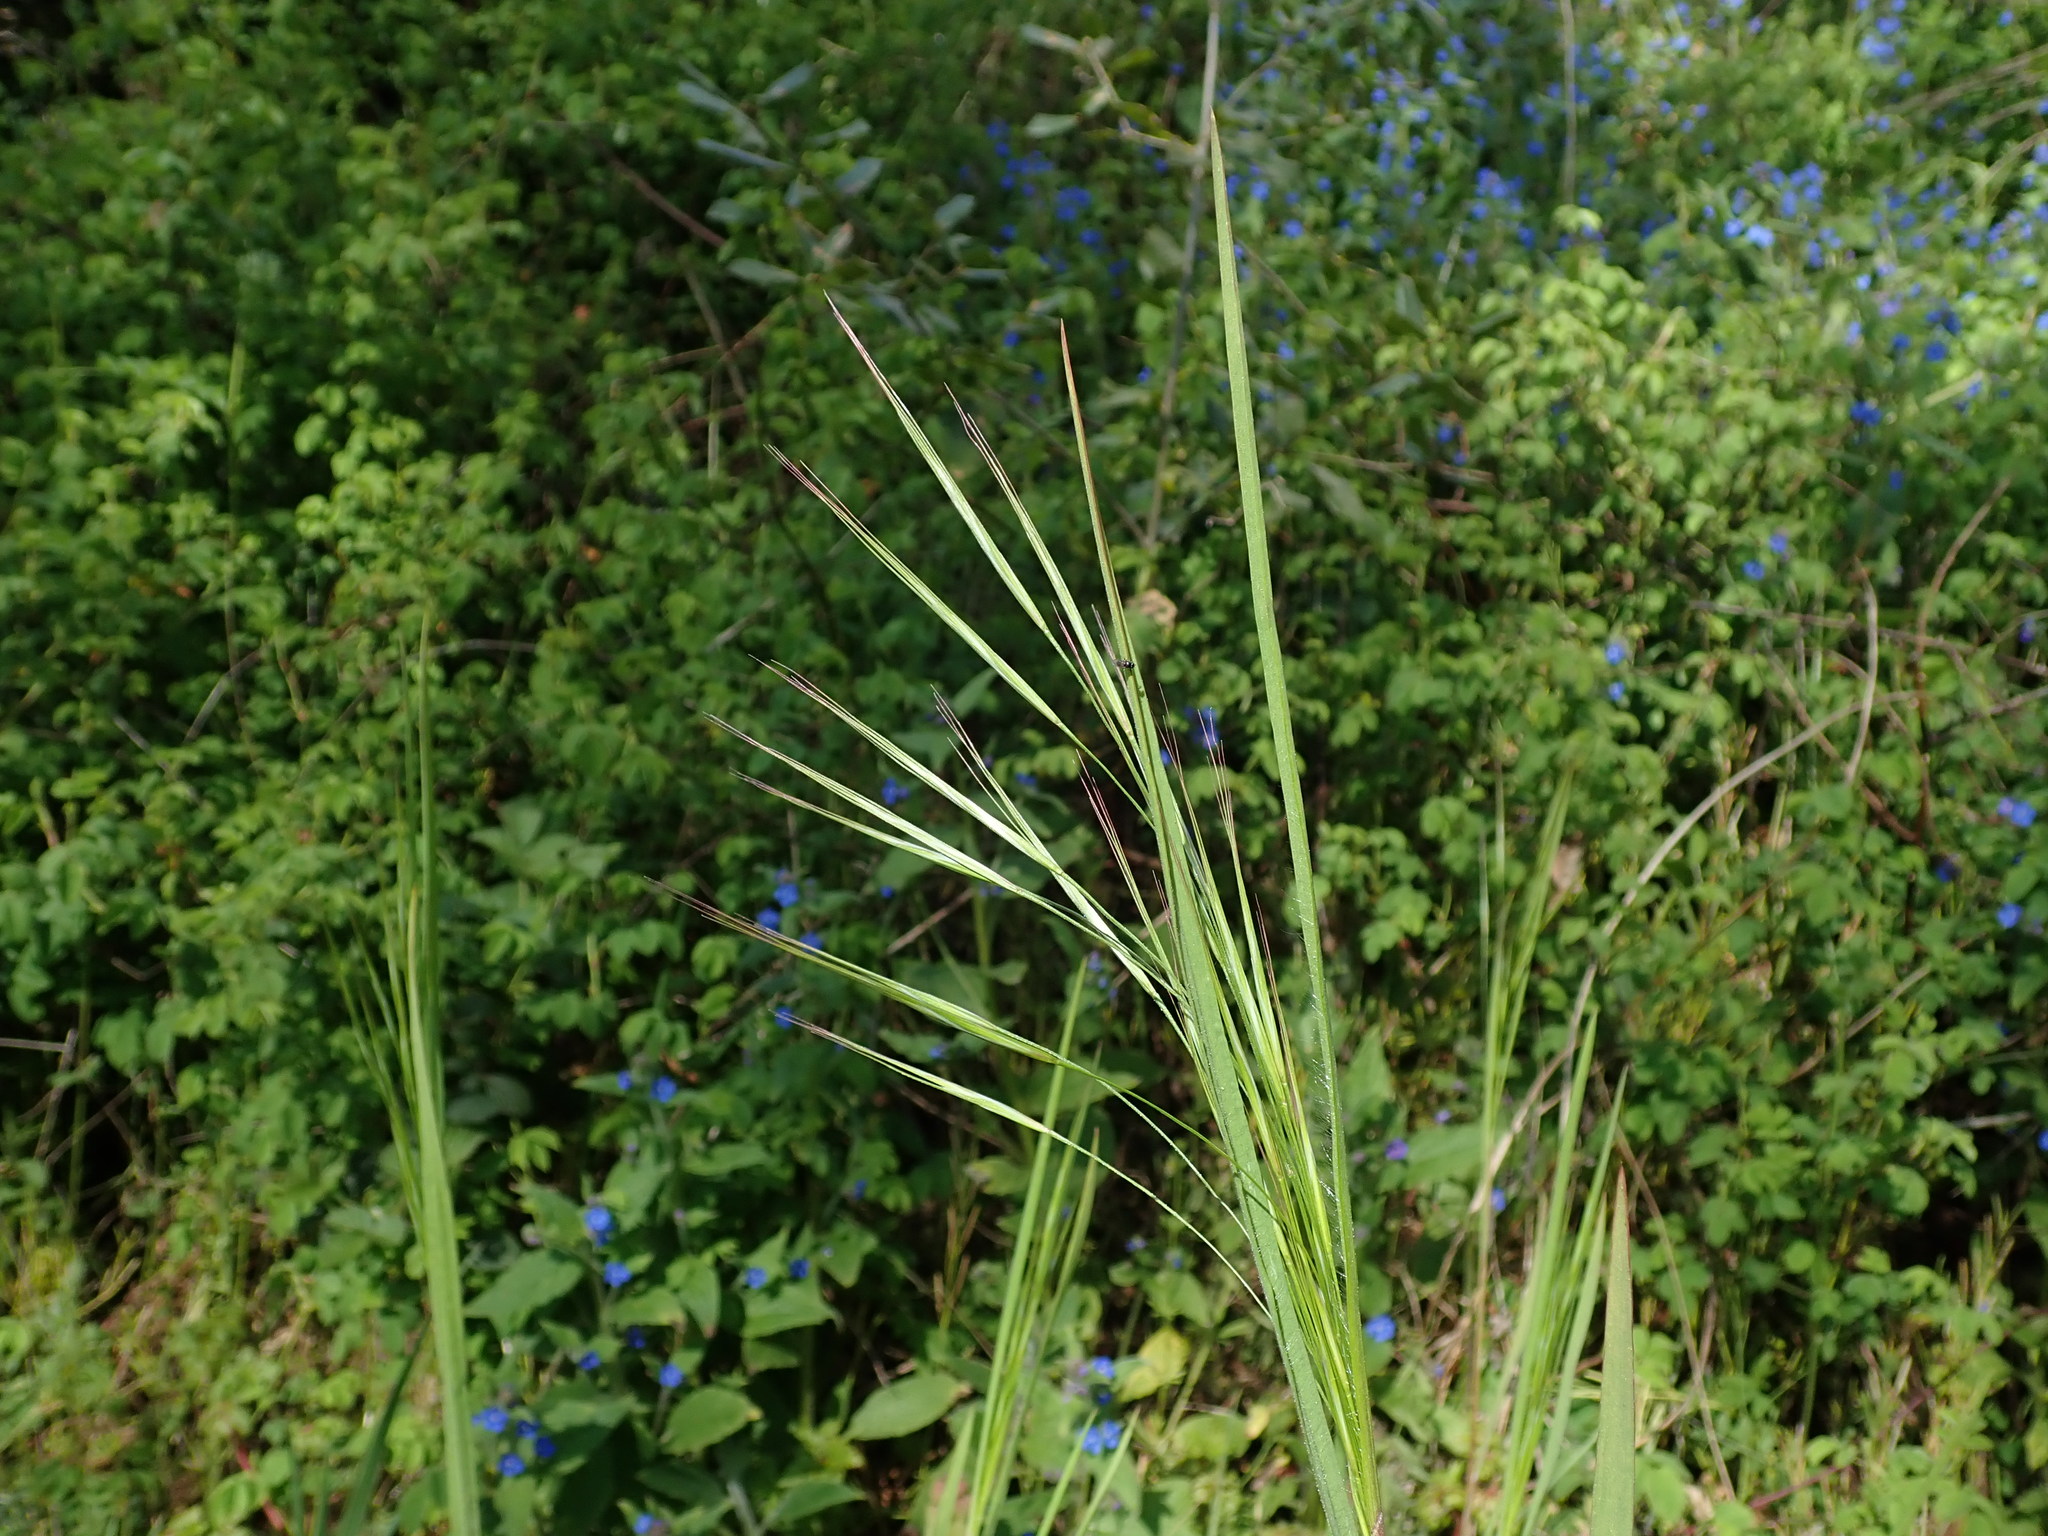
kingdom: Plantae
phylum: Tracheophyta
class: Liliopsida
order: Poales
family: Poaceae
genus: Bromus
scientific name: Bromus sterilis
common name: Poverty brome
